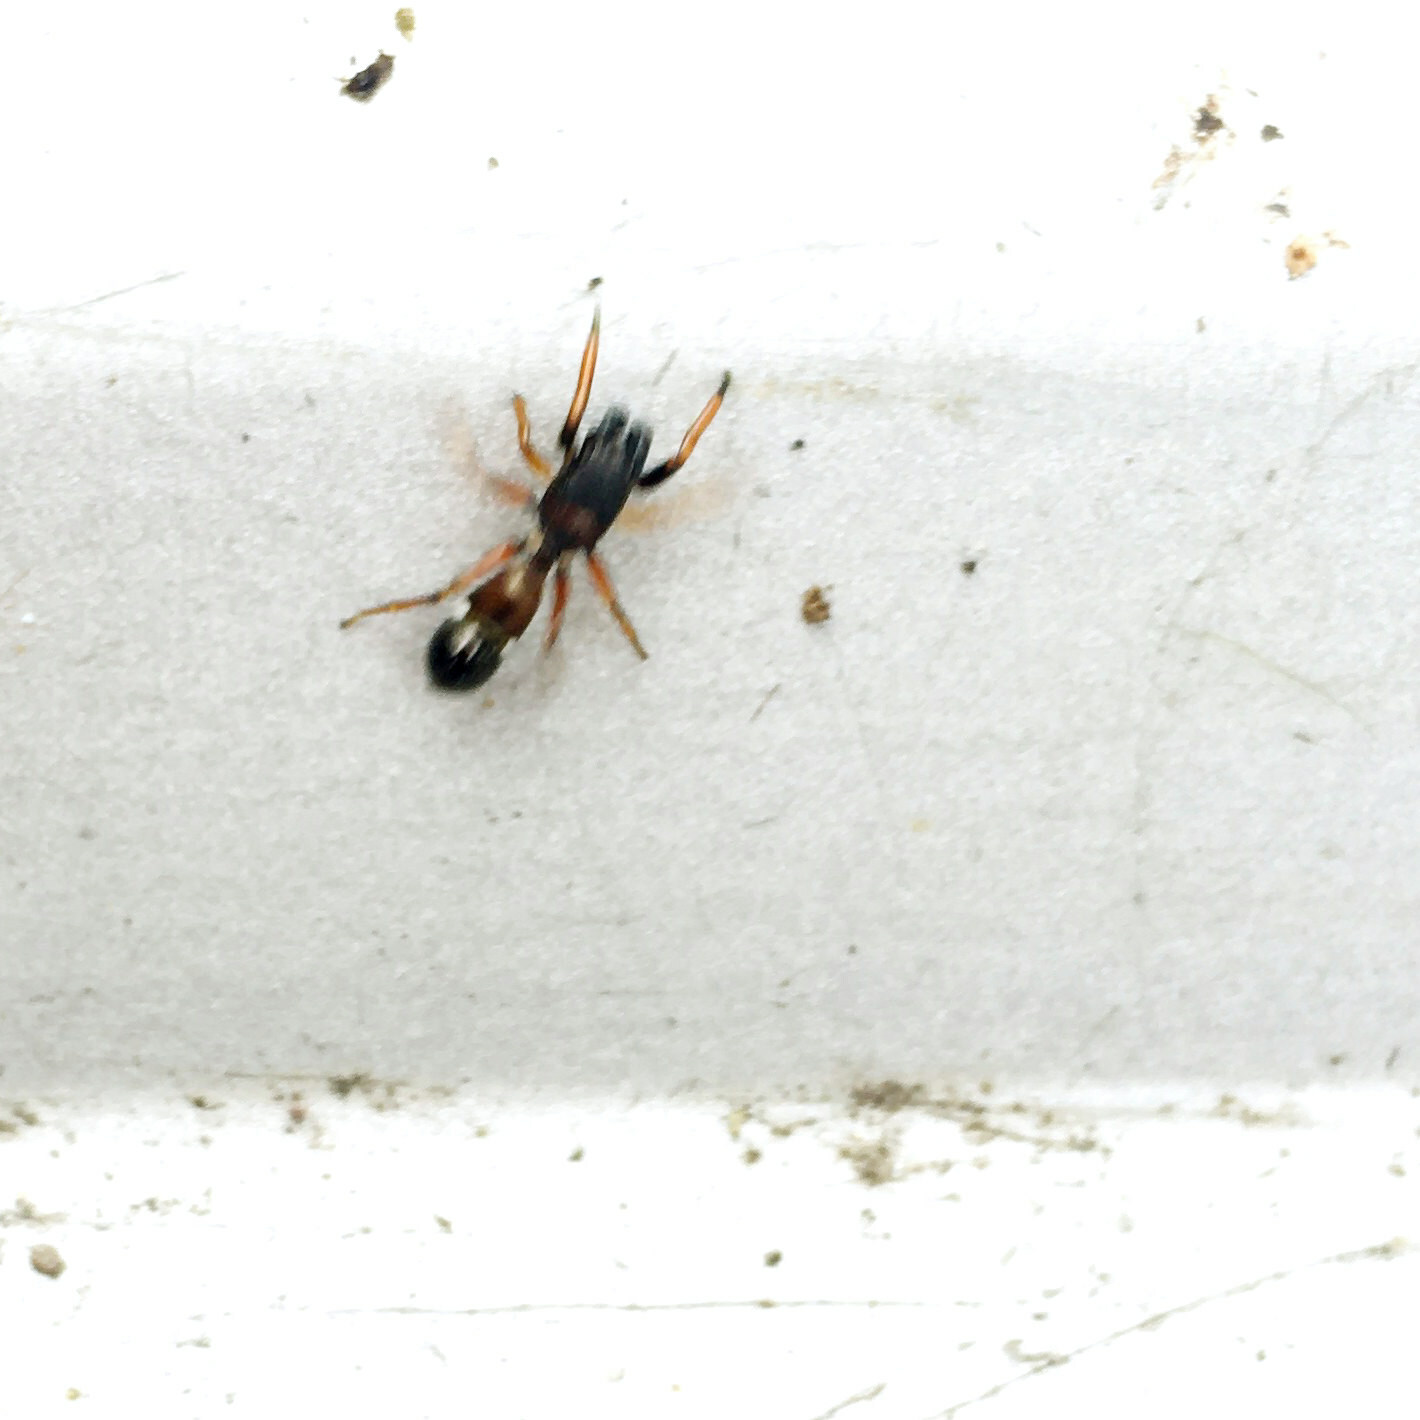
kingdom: Animalia
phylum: Arthropoda
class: Arachnida
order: Araneae
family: Salticidae
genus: Leptorchestes
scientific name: Leptorchestes berolinensis
